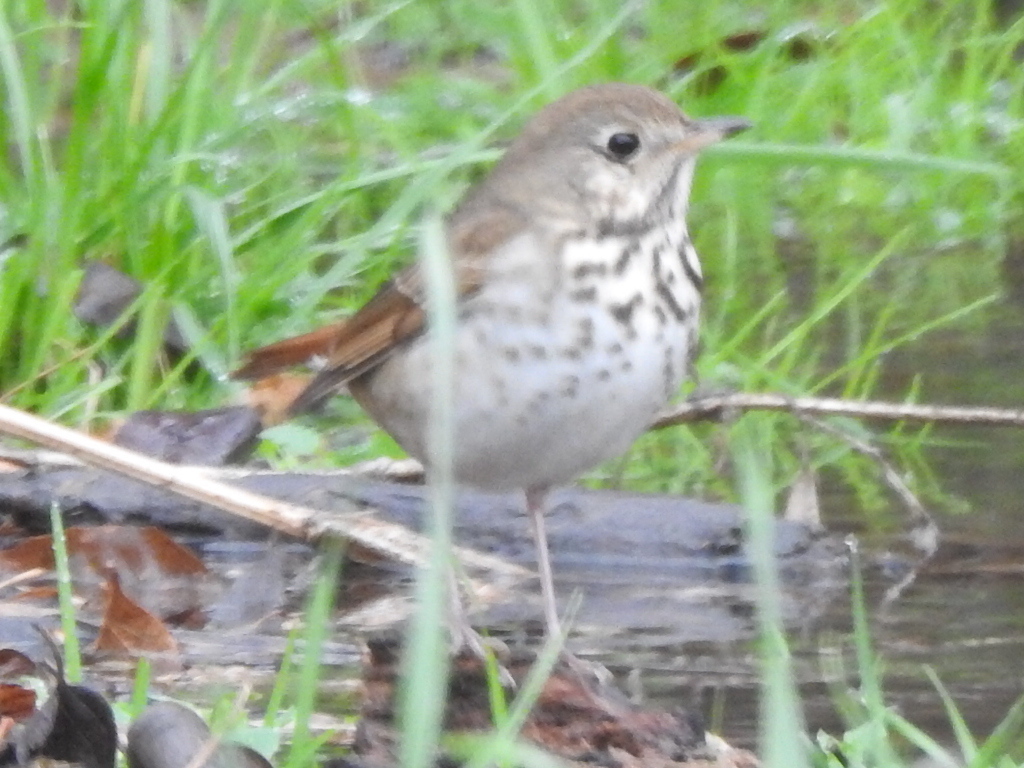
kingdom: Animalia
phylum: Chordata
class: Aves
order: Passeriformes
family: Turdidae
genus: Catharus
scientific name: Catharus guttatus
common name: Hermit thrush
